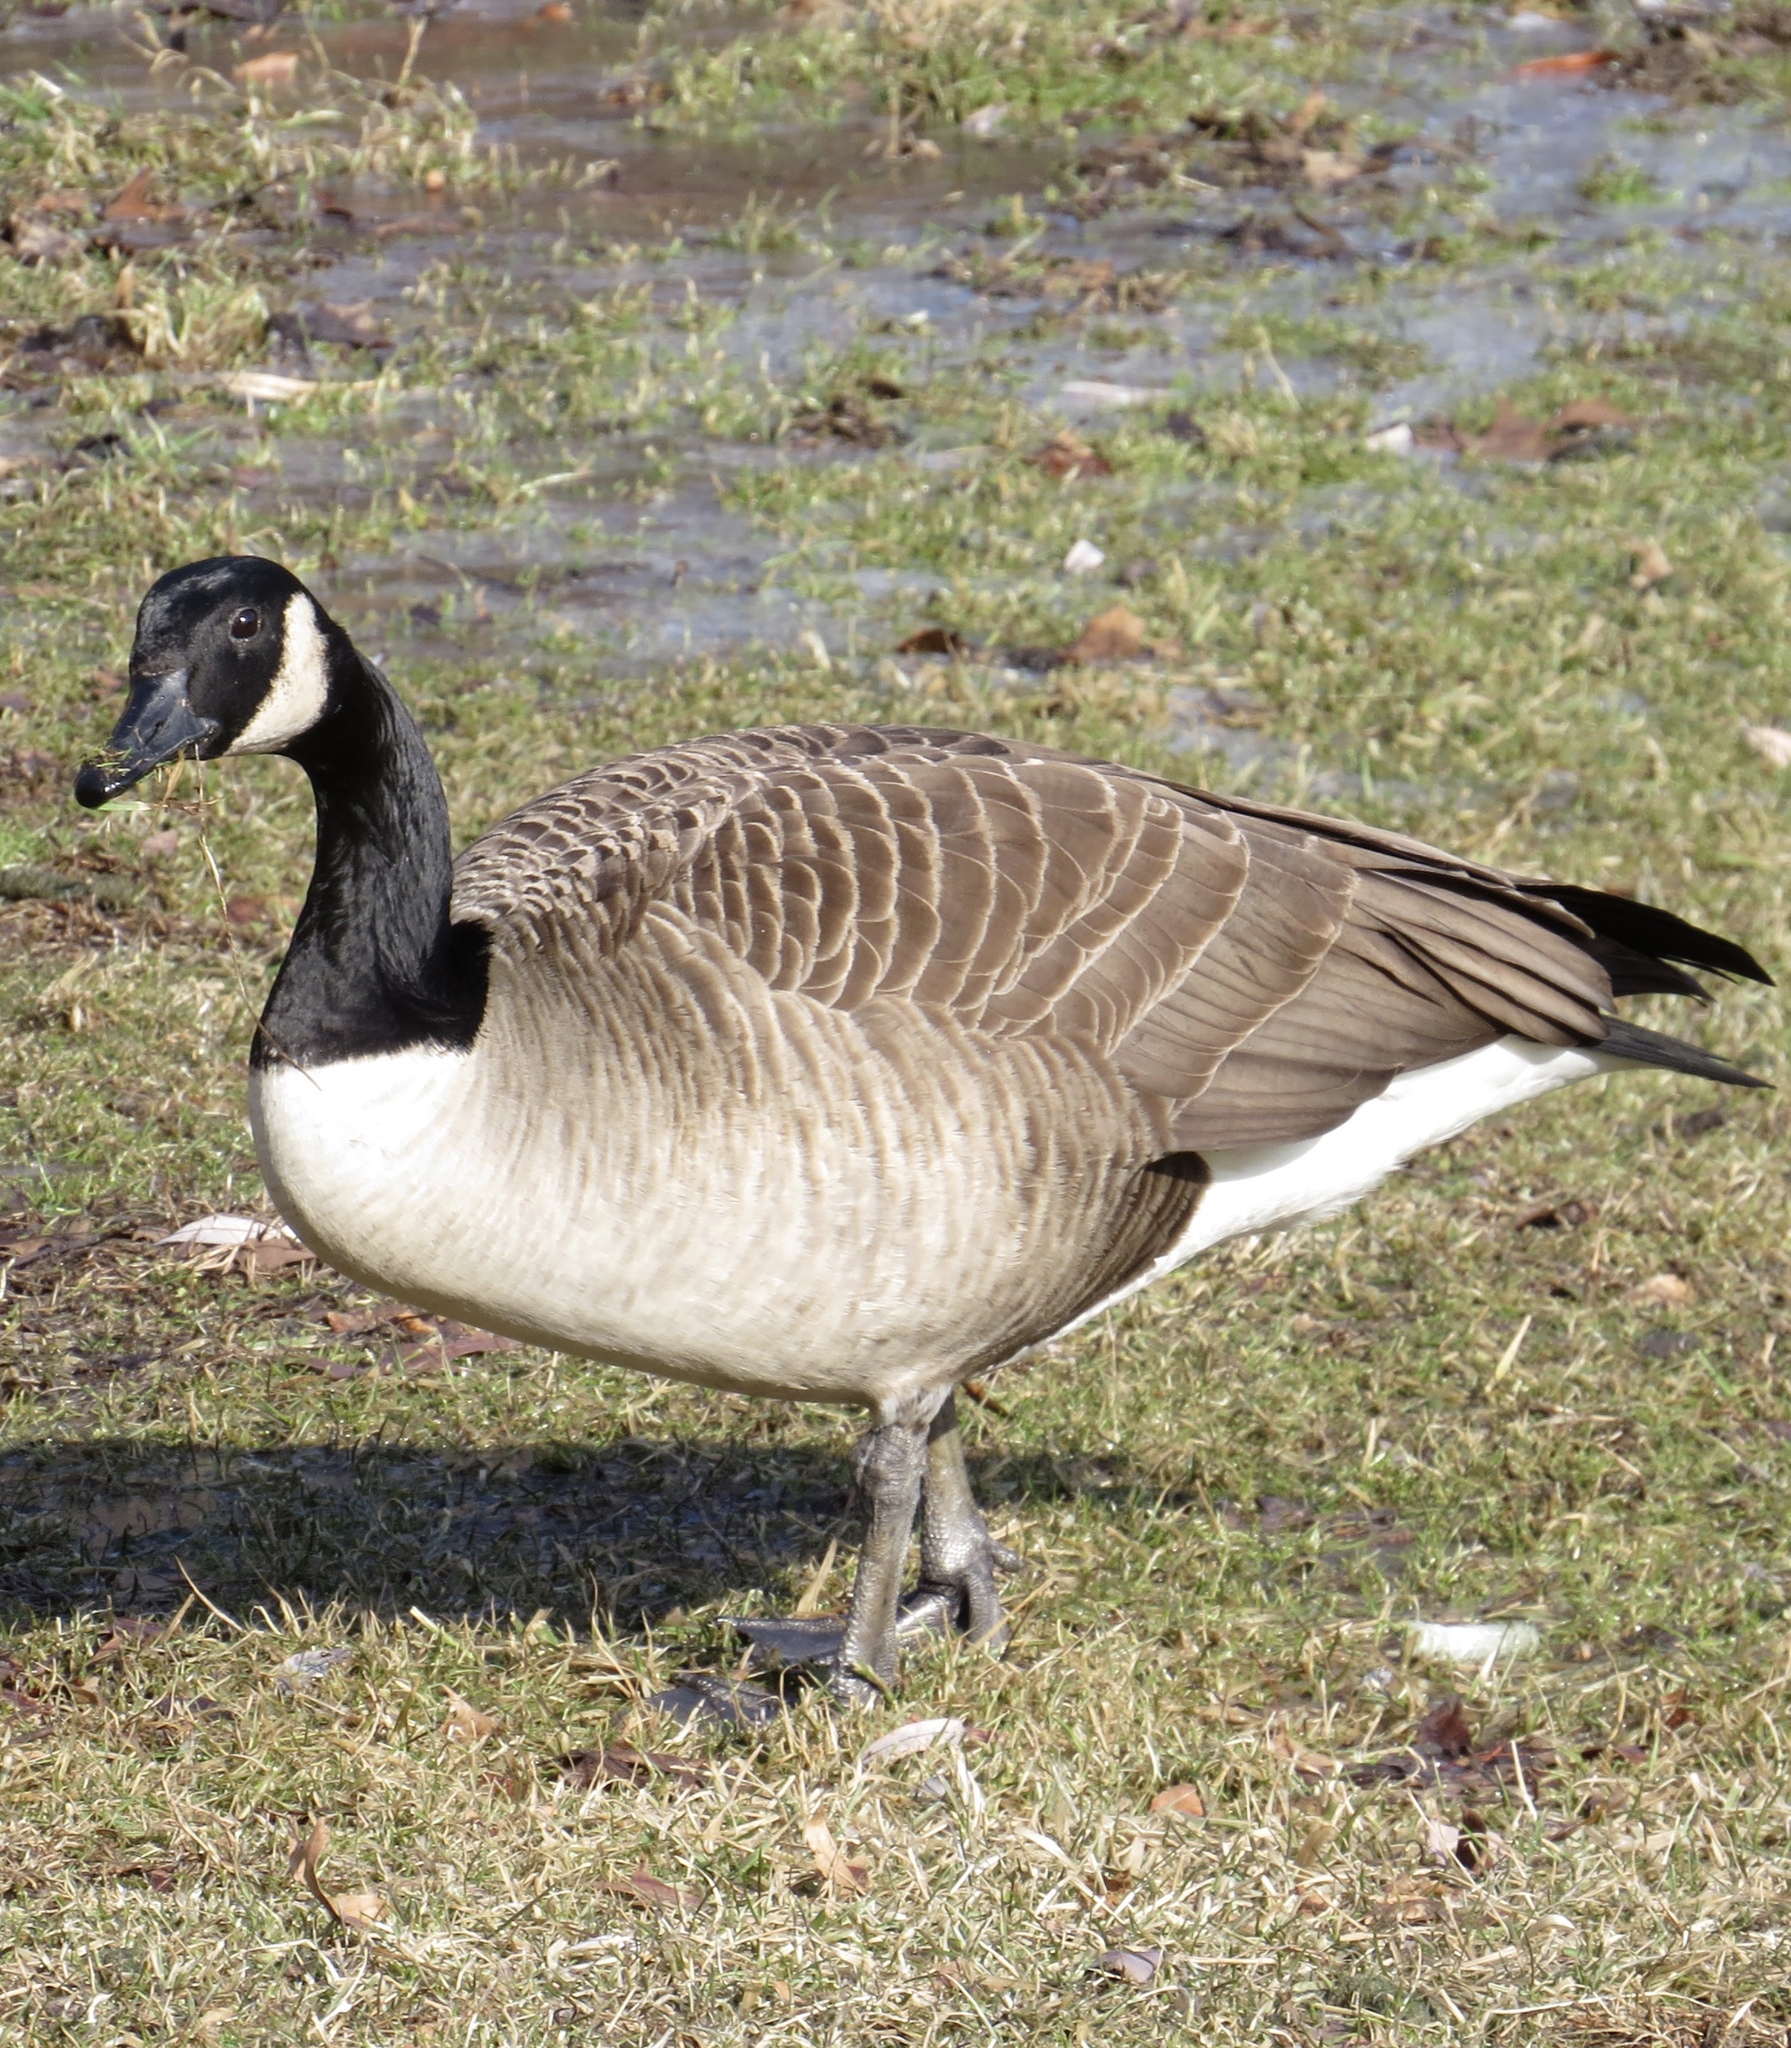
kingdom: Animalia
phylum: Chordata
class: Aves
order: Anseriformes
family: Anatidae
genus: Branta
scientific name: Branta canadensis
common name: Canada goose
